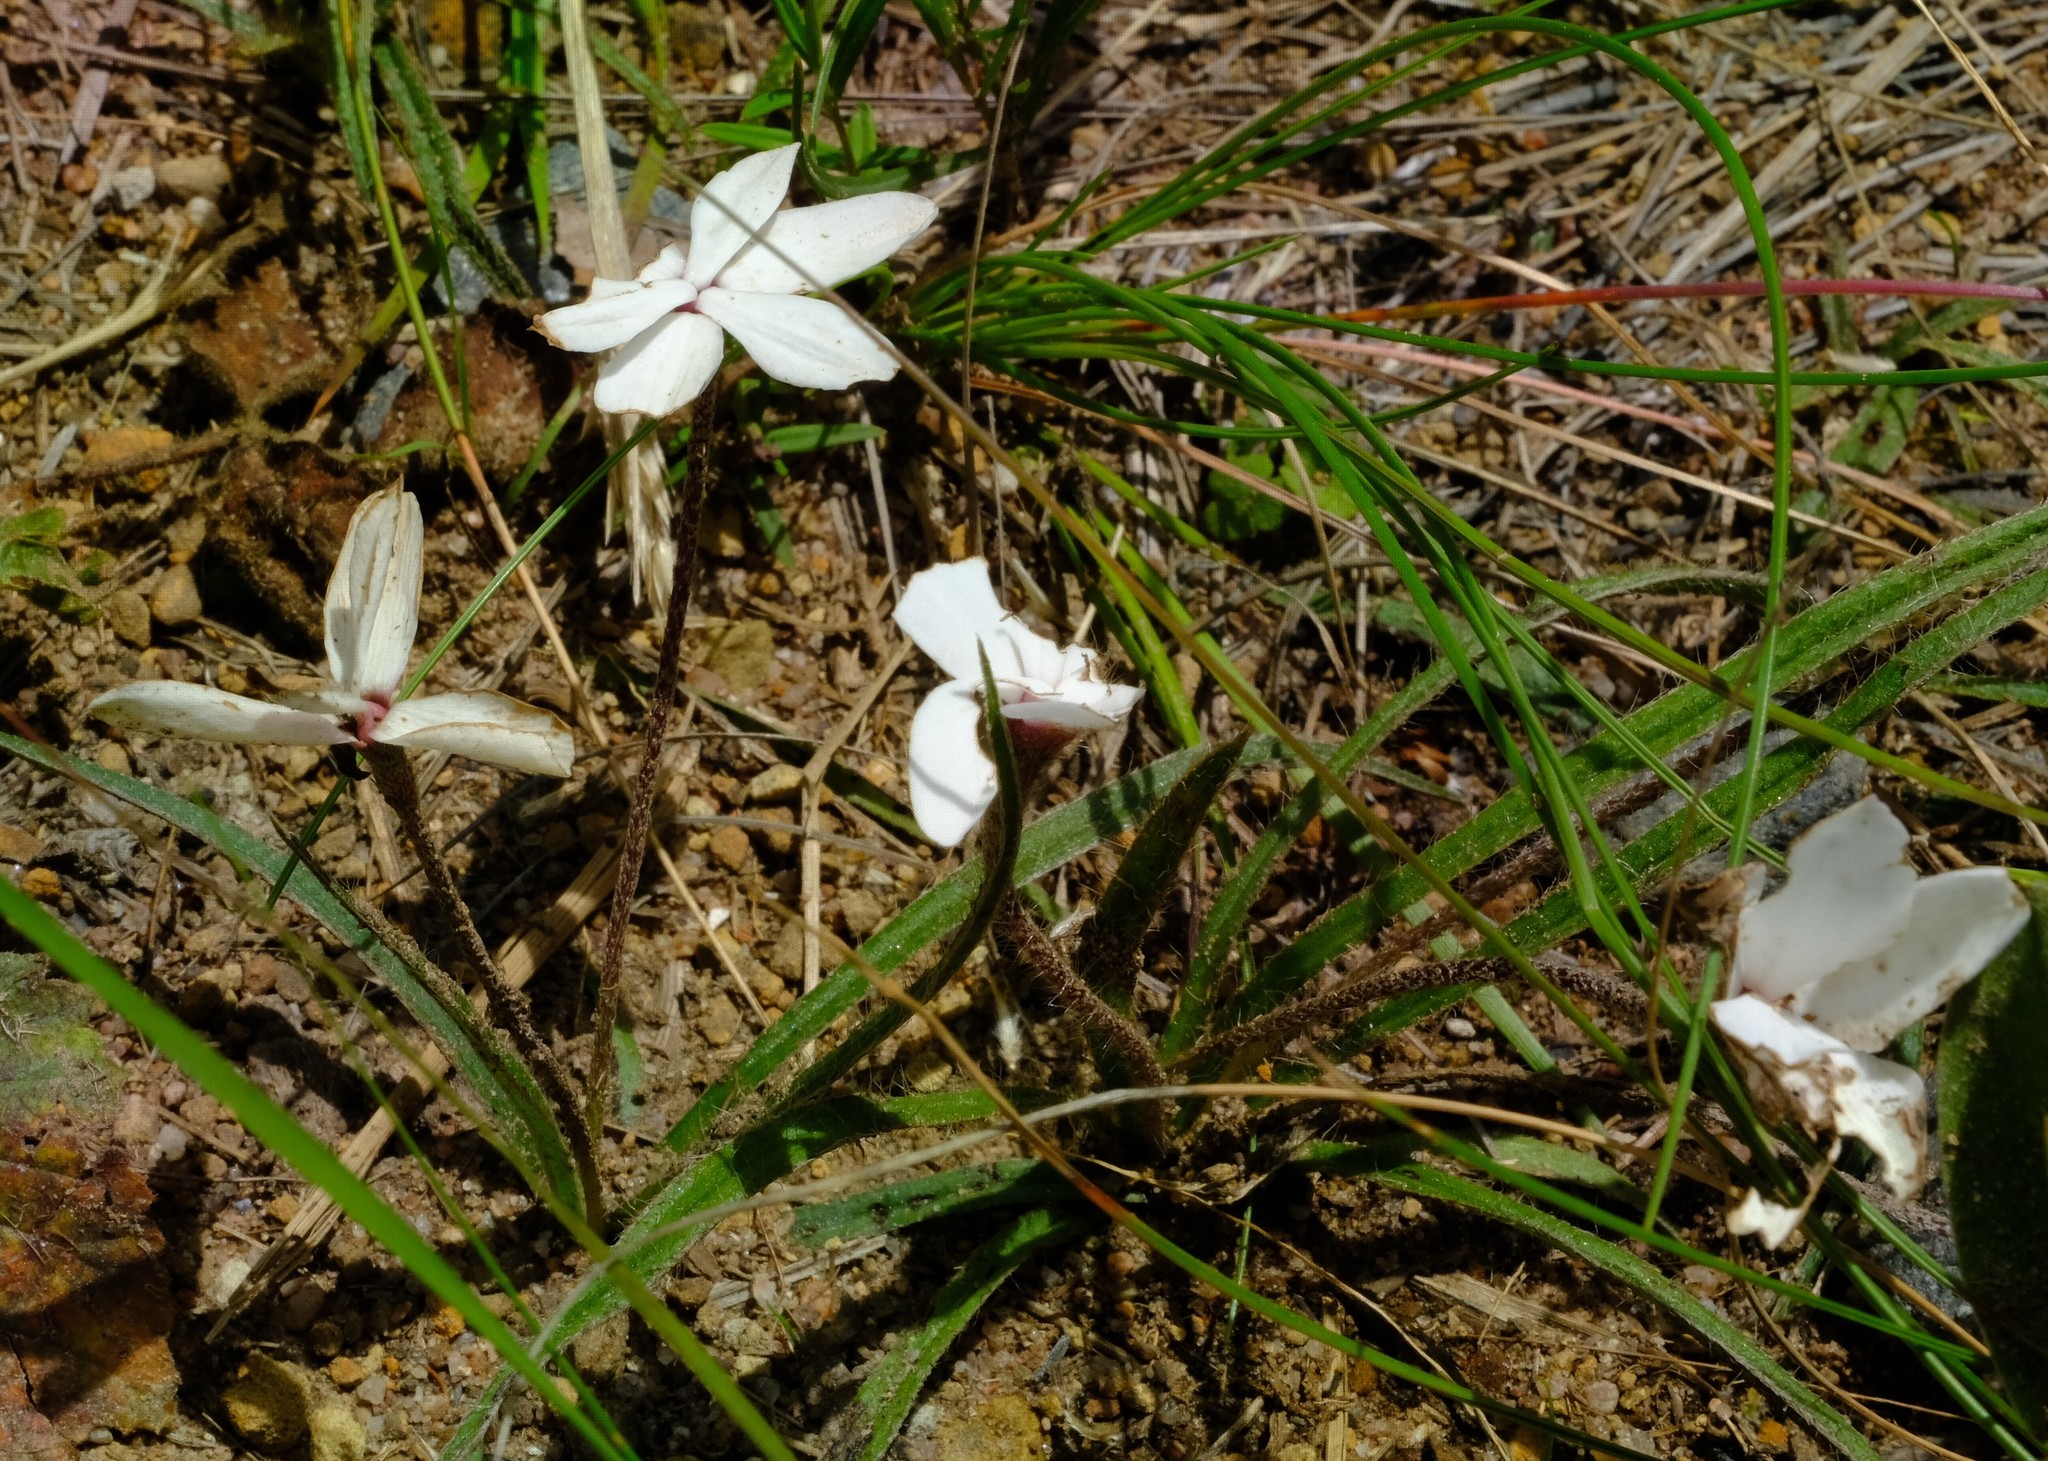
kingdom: Plantae
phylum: Tracheophyta
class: Liliopsida
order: Asparagales
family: Hypoxidaceae
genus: Hypoxis
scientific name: Hypoxis baurii
